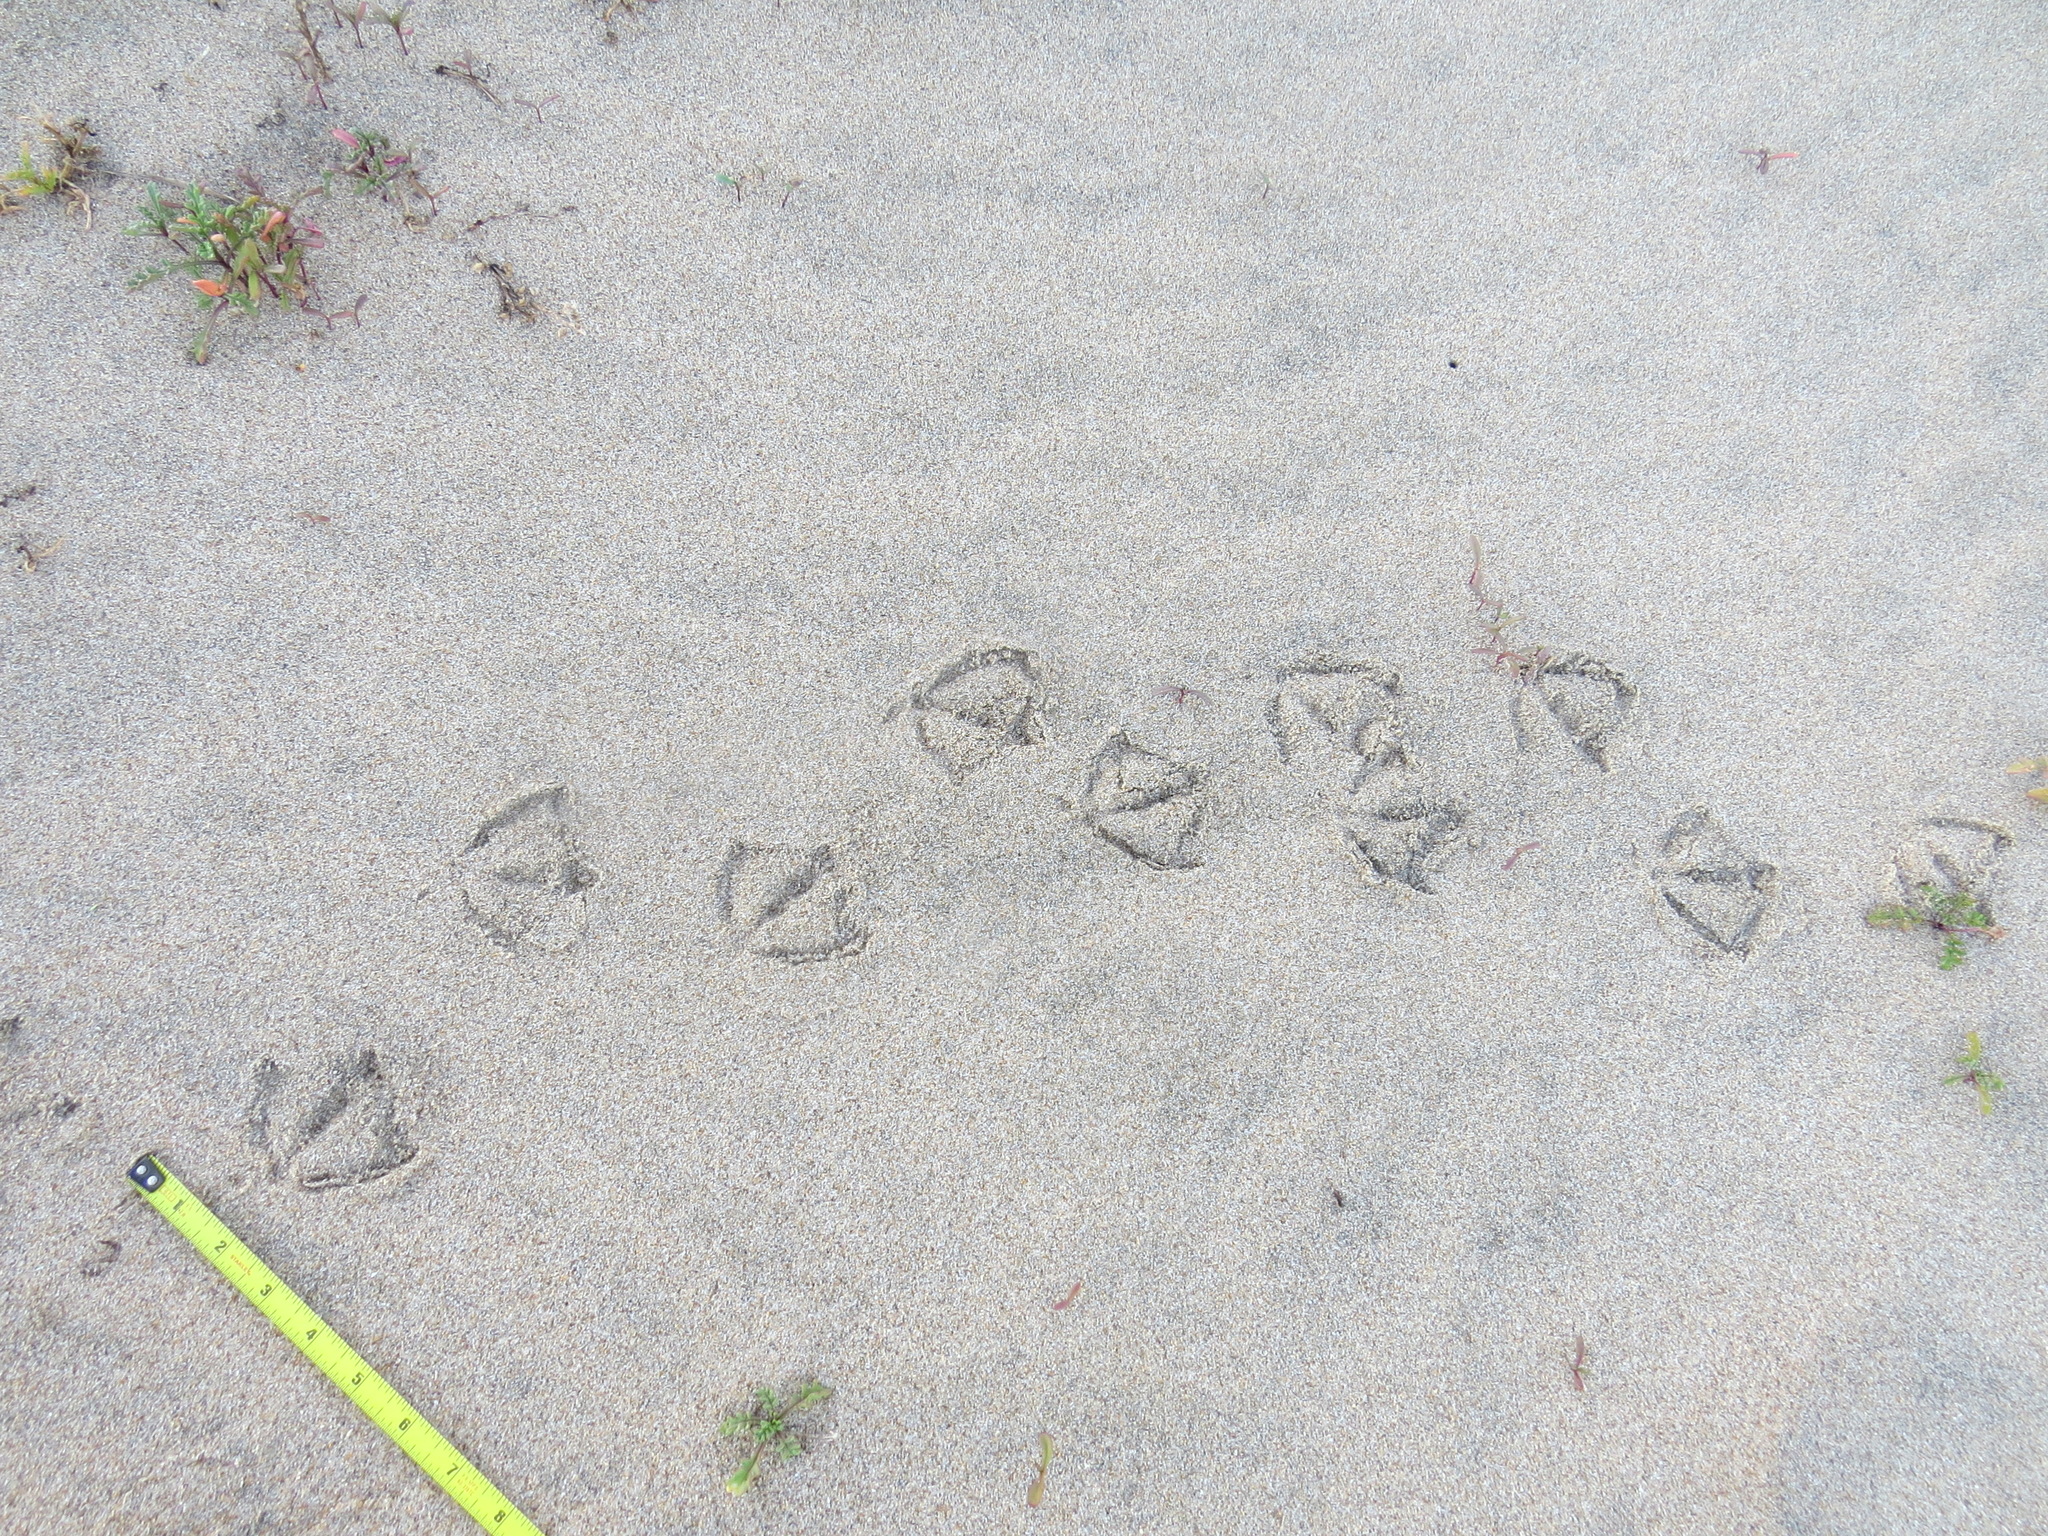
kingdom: Animalia
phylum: Chordata
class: Aves
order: Anseriformes
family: Anatidae
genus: Anas
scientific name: Anas platyrhynchos
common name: Mallard
